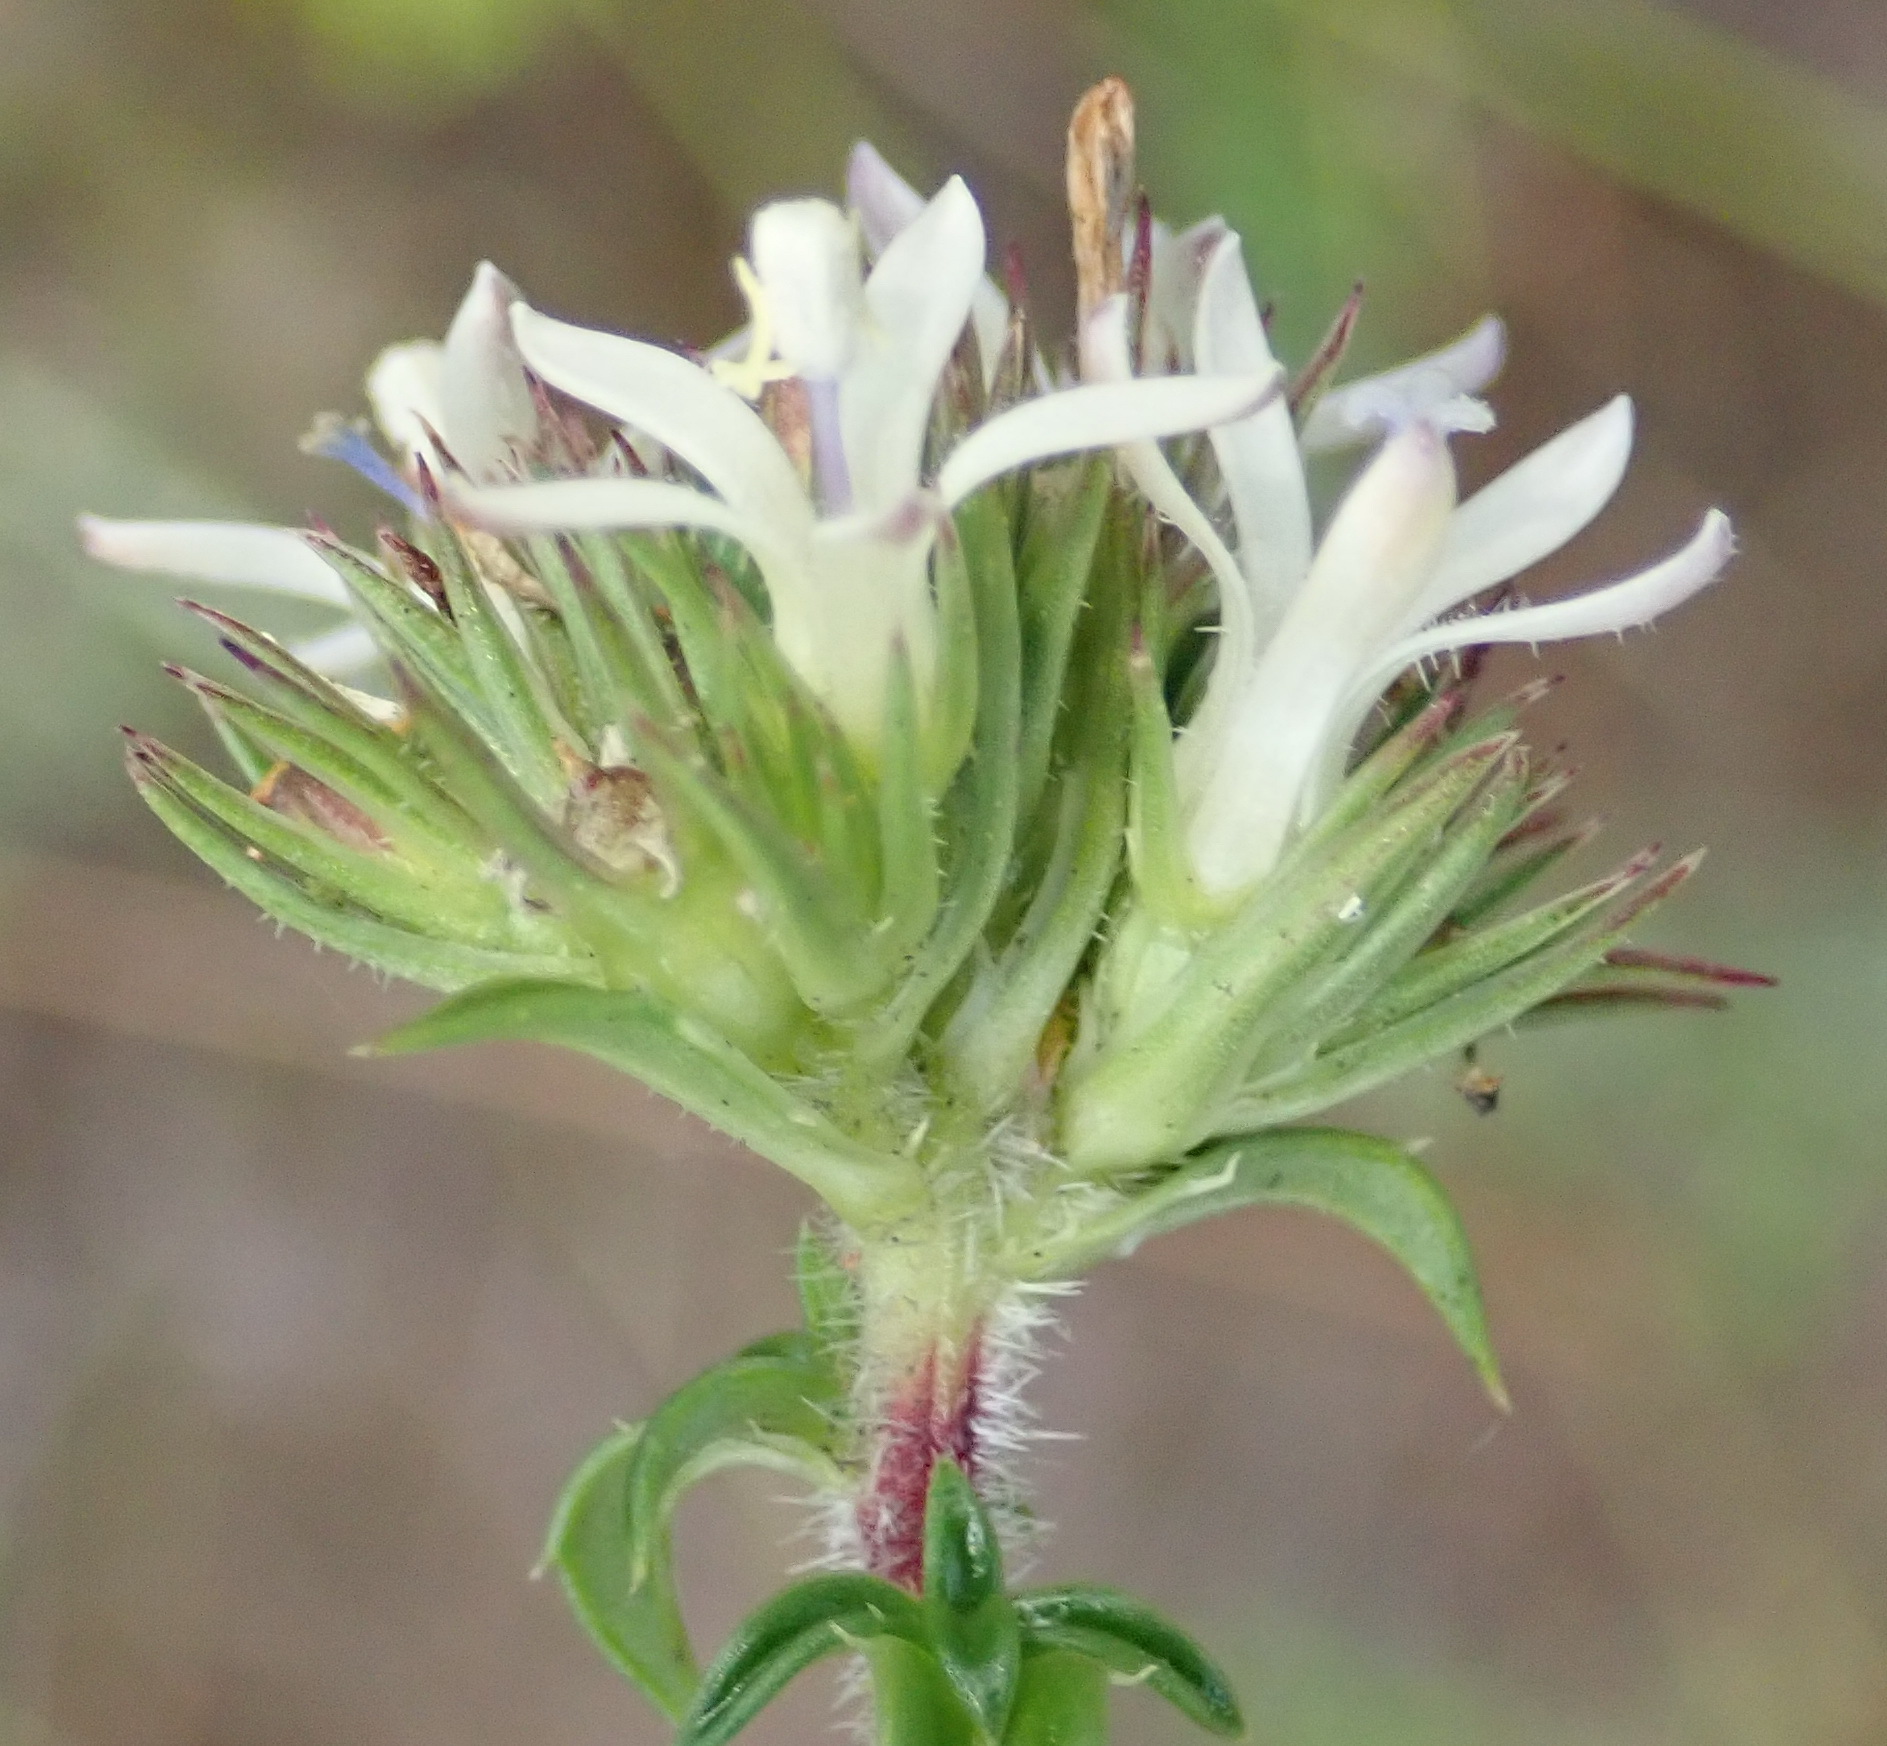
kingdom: Plantae
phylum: Tracheophyta
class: Magnoliopsida
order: Asterales
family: Campanulaceae
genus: Wahlenbergia
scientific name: Wahlenbergia desmantha
